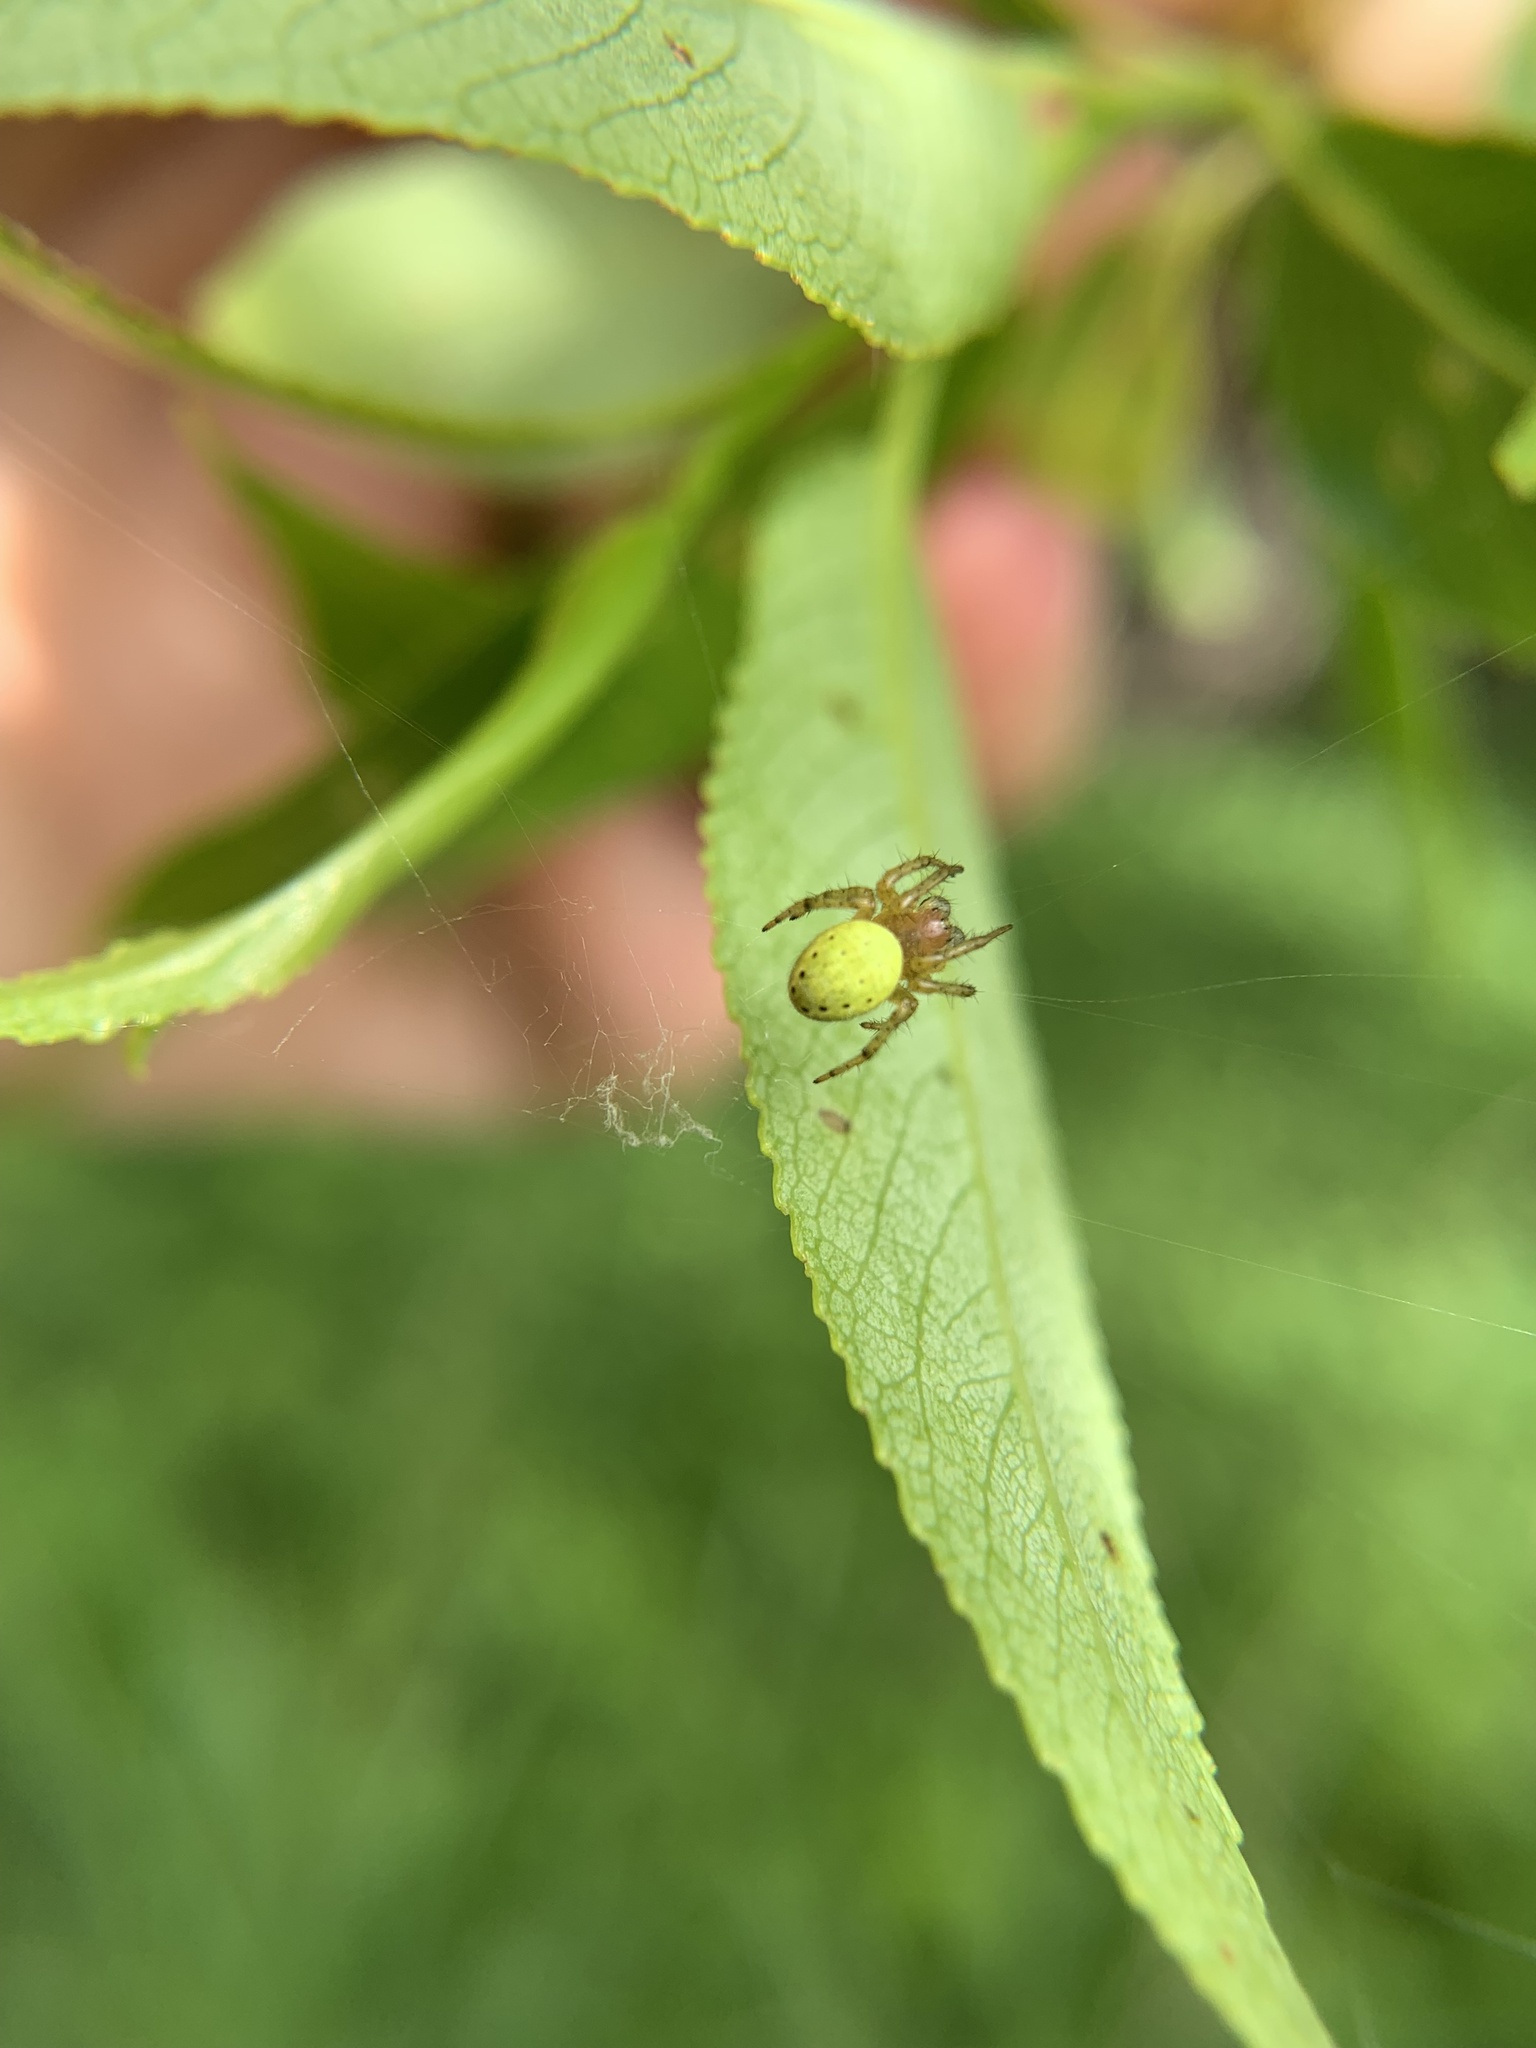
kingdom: Animalia
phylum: Arthropoda
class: Arachnida
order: Araneae
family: Araneidae
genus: Araniella
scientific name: Araniella
